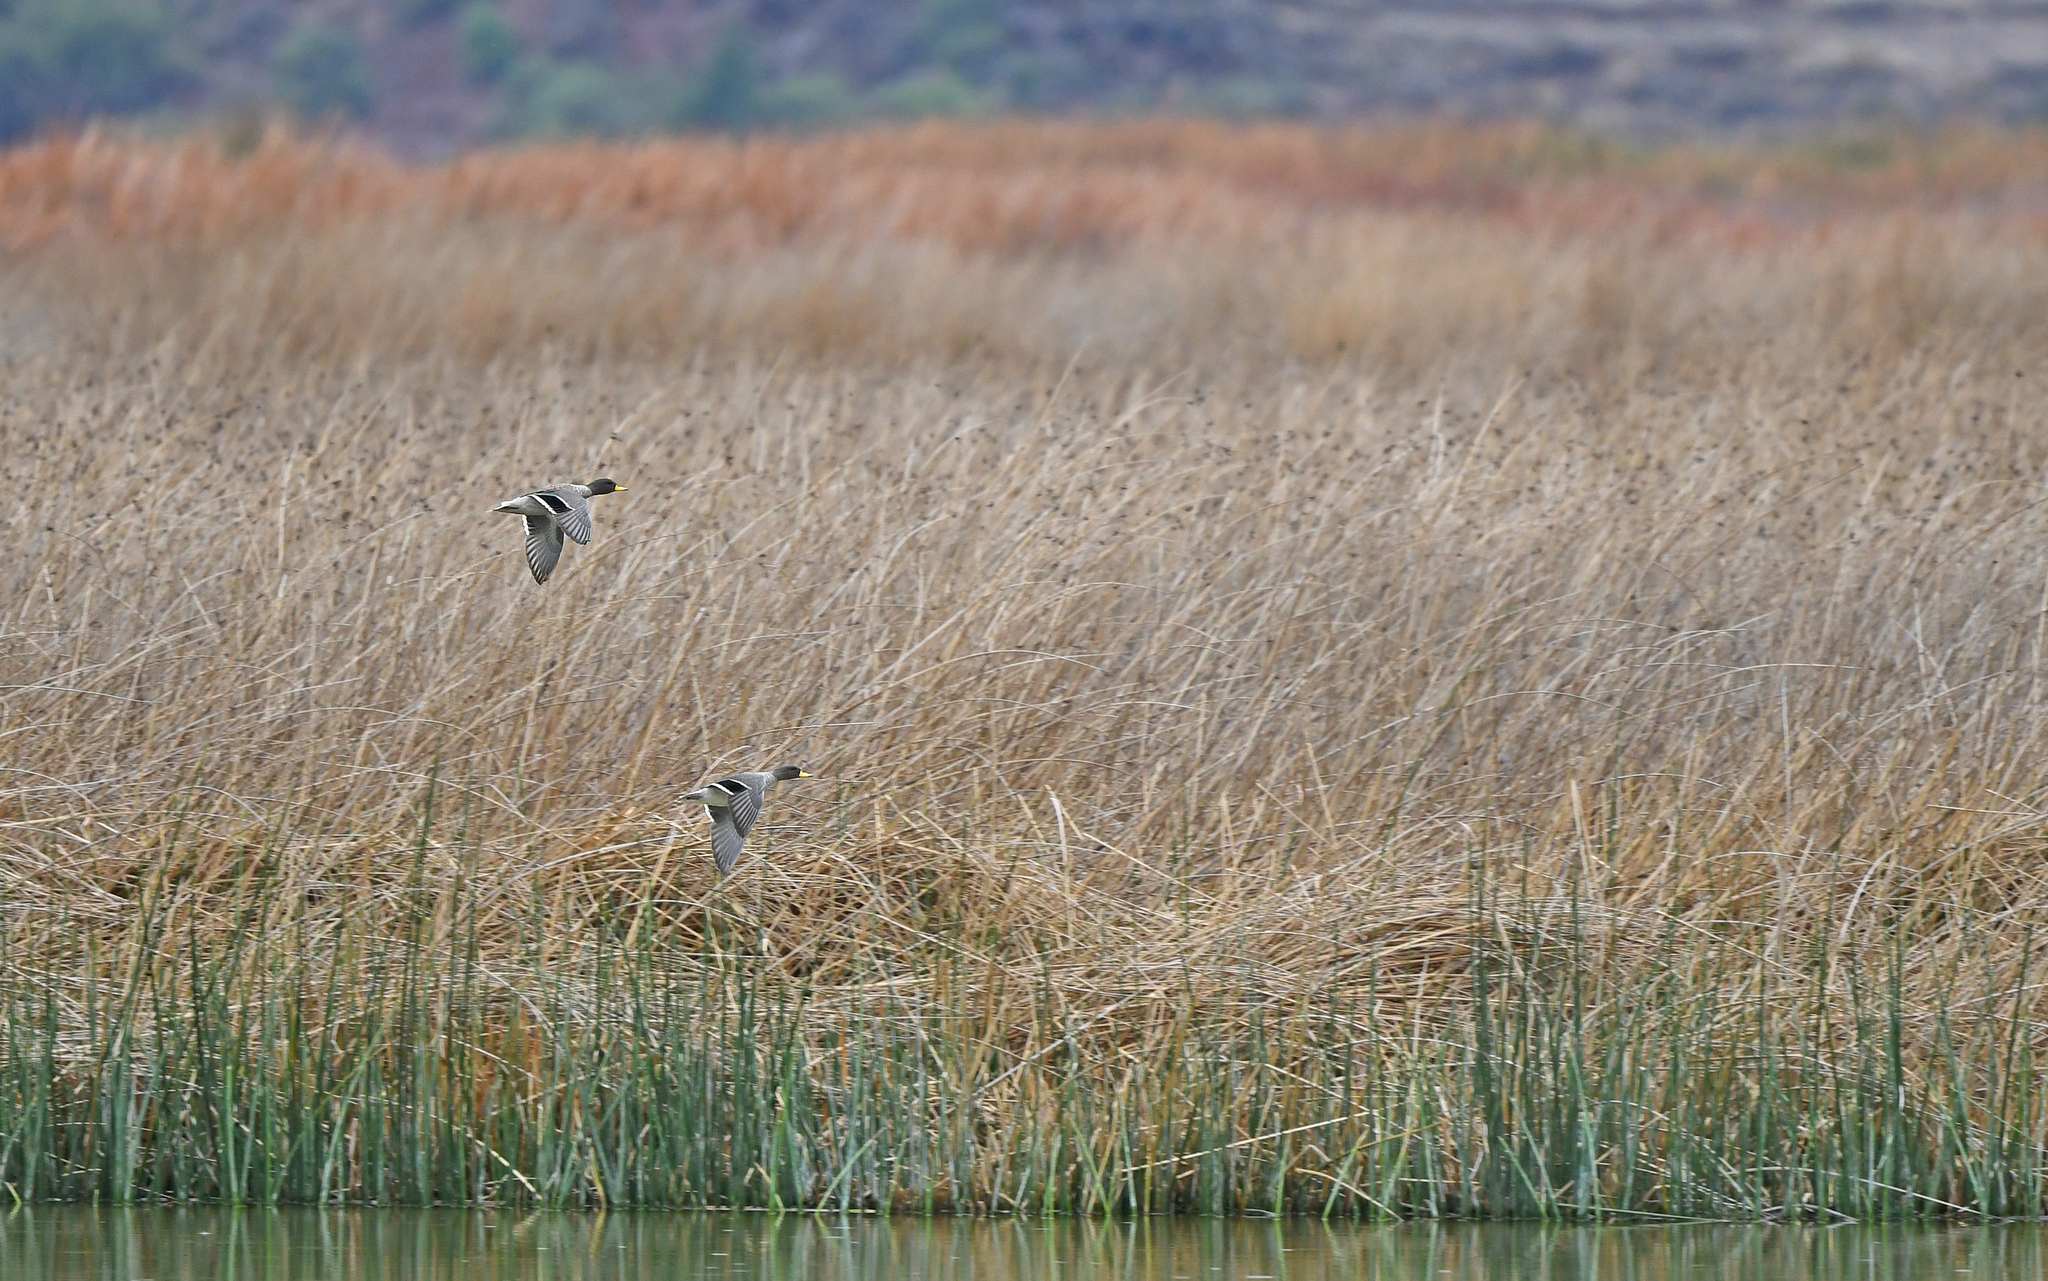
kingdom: Animalia
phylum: Chordata
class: Aves
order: Anseriformes
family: Anatidae
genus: Anas
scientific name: Anas flavirostris
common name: Yellow-billed teal
